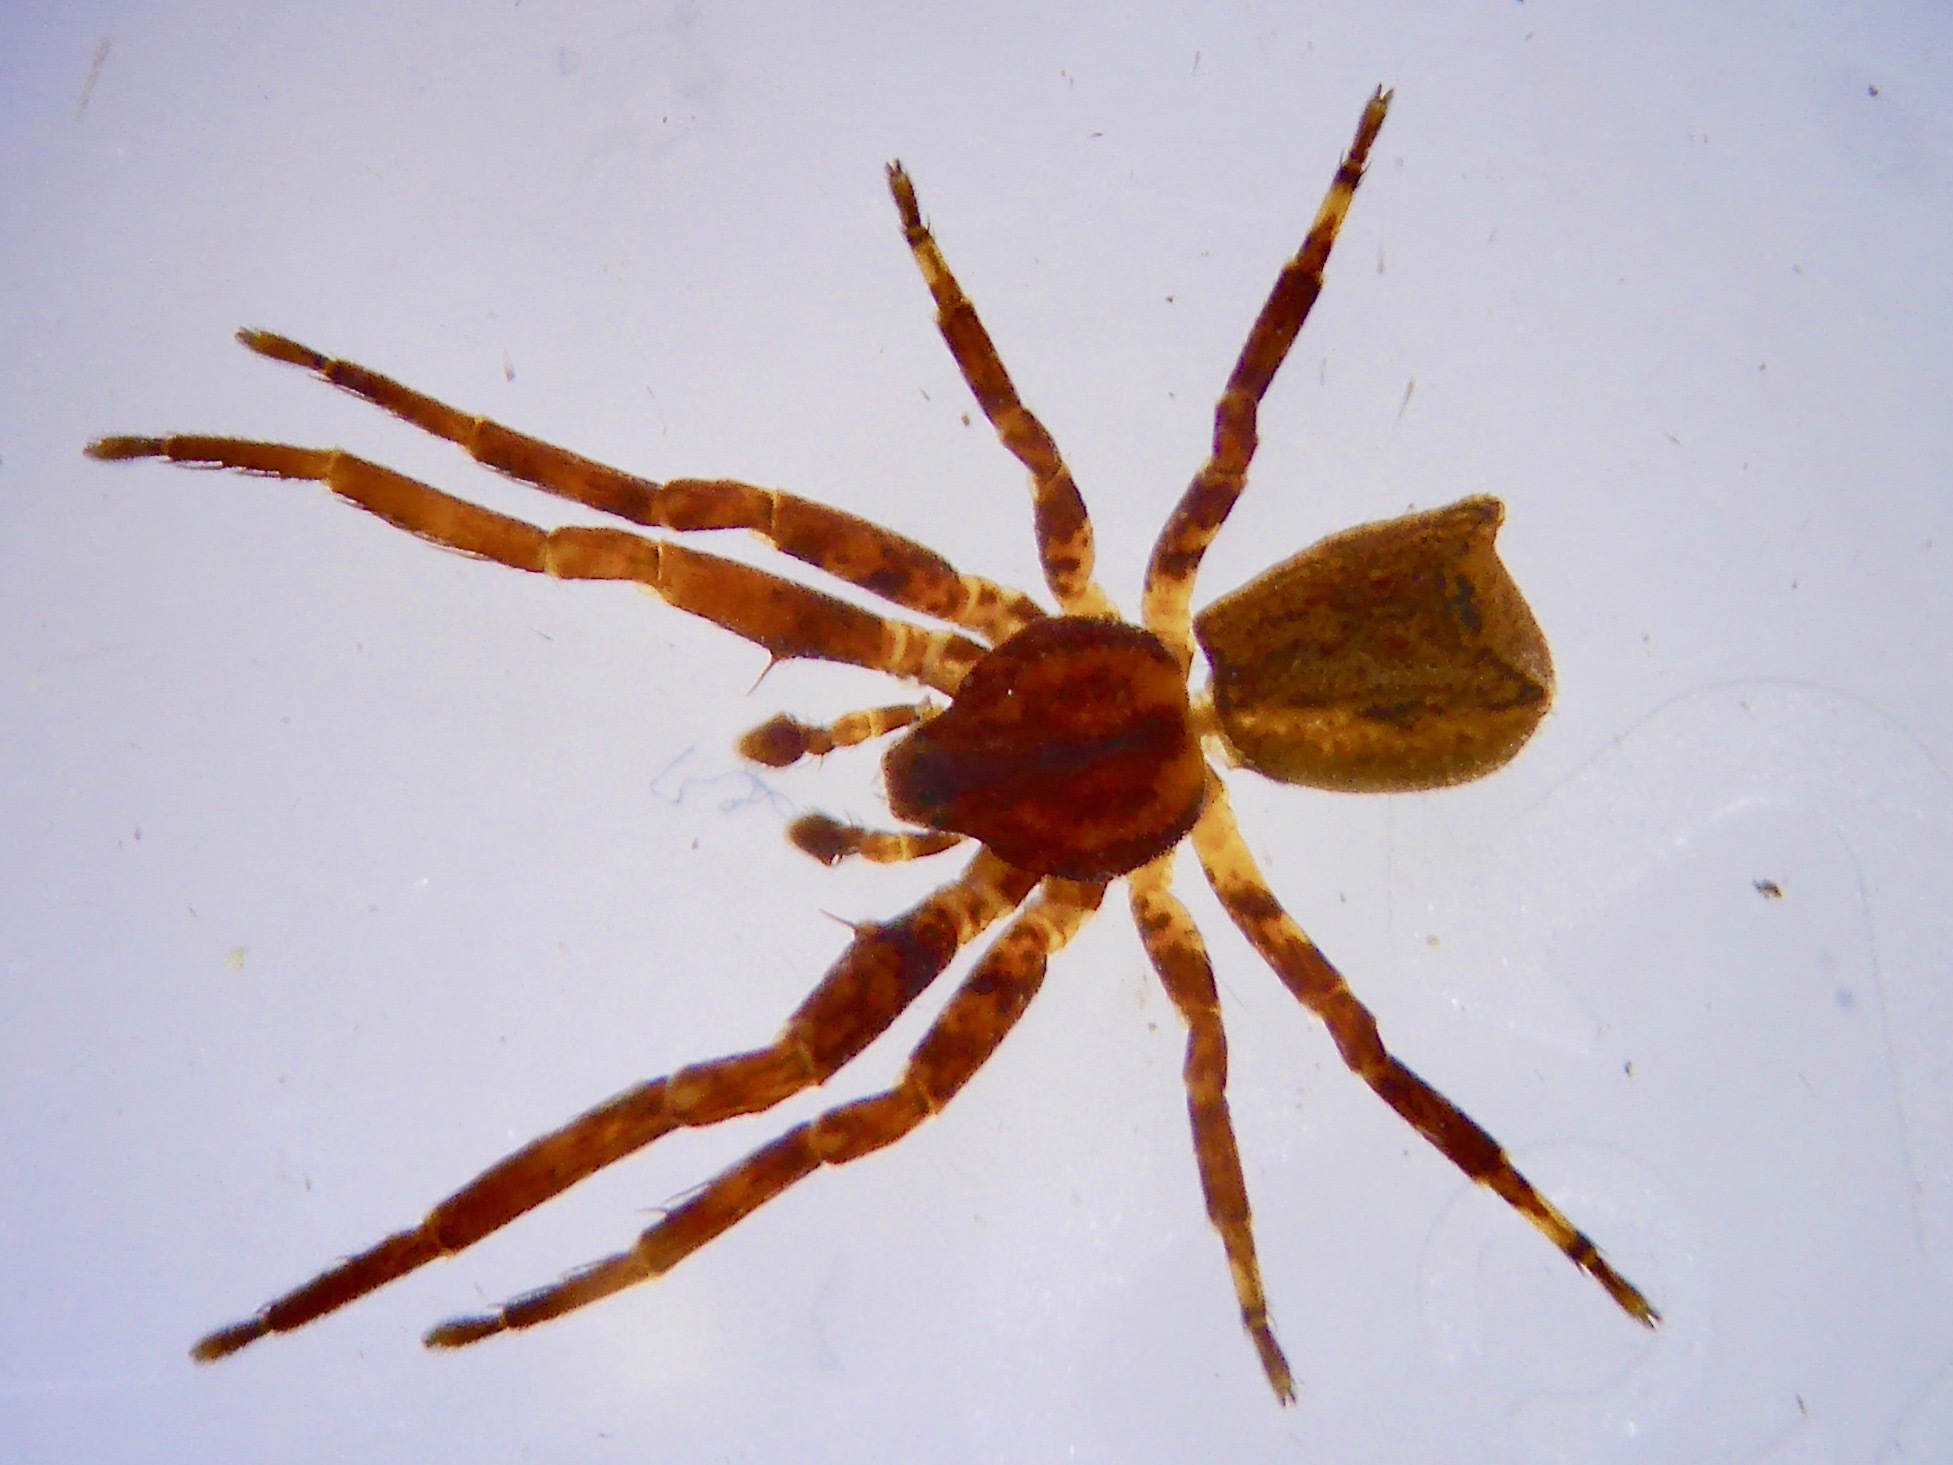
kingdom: Animalia
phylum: Arthropoda
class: Arachnida
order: Araneae
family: Thomisidae
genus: Sidymella
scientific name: Sidymella angulata
